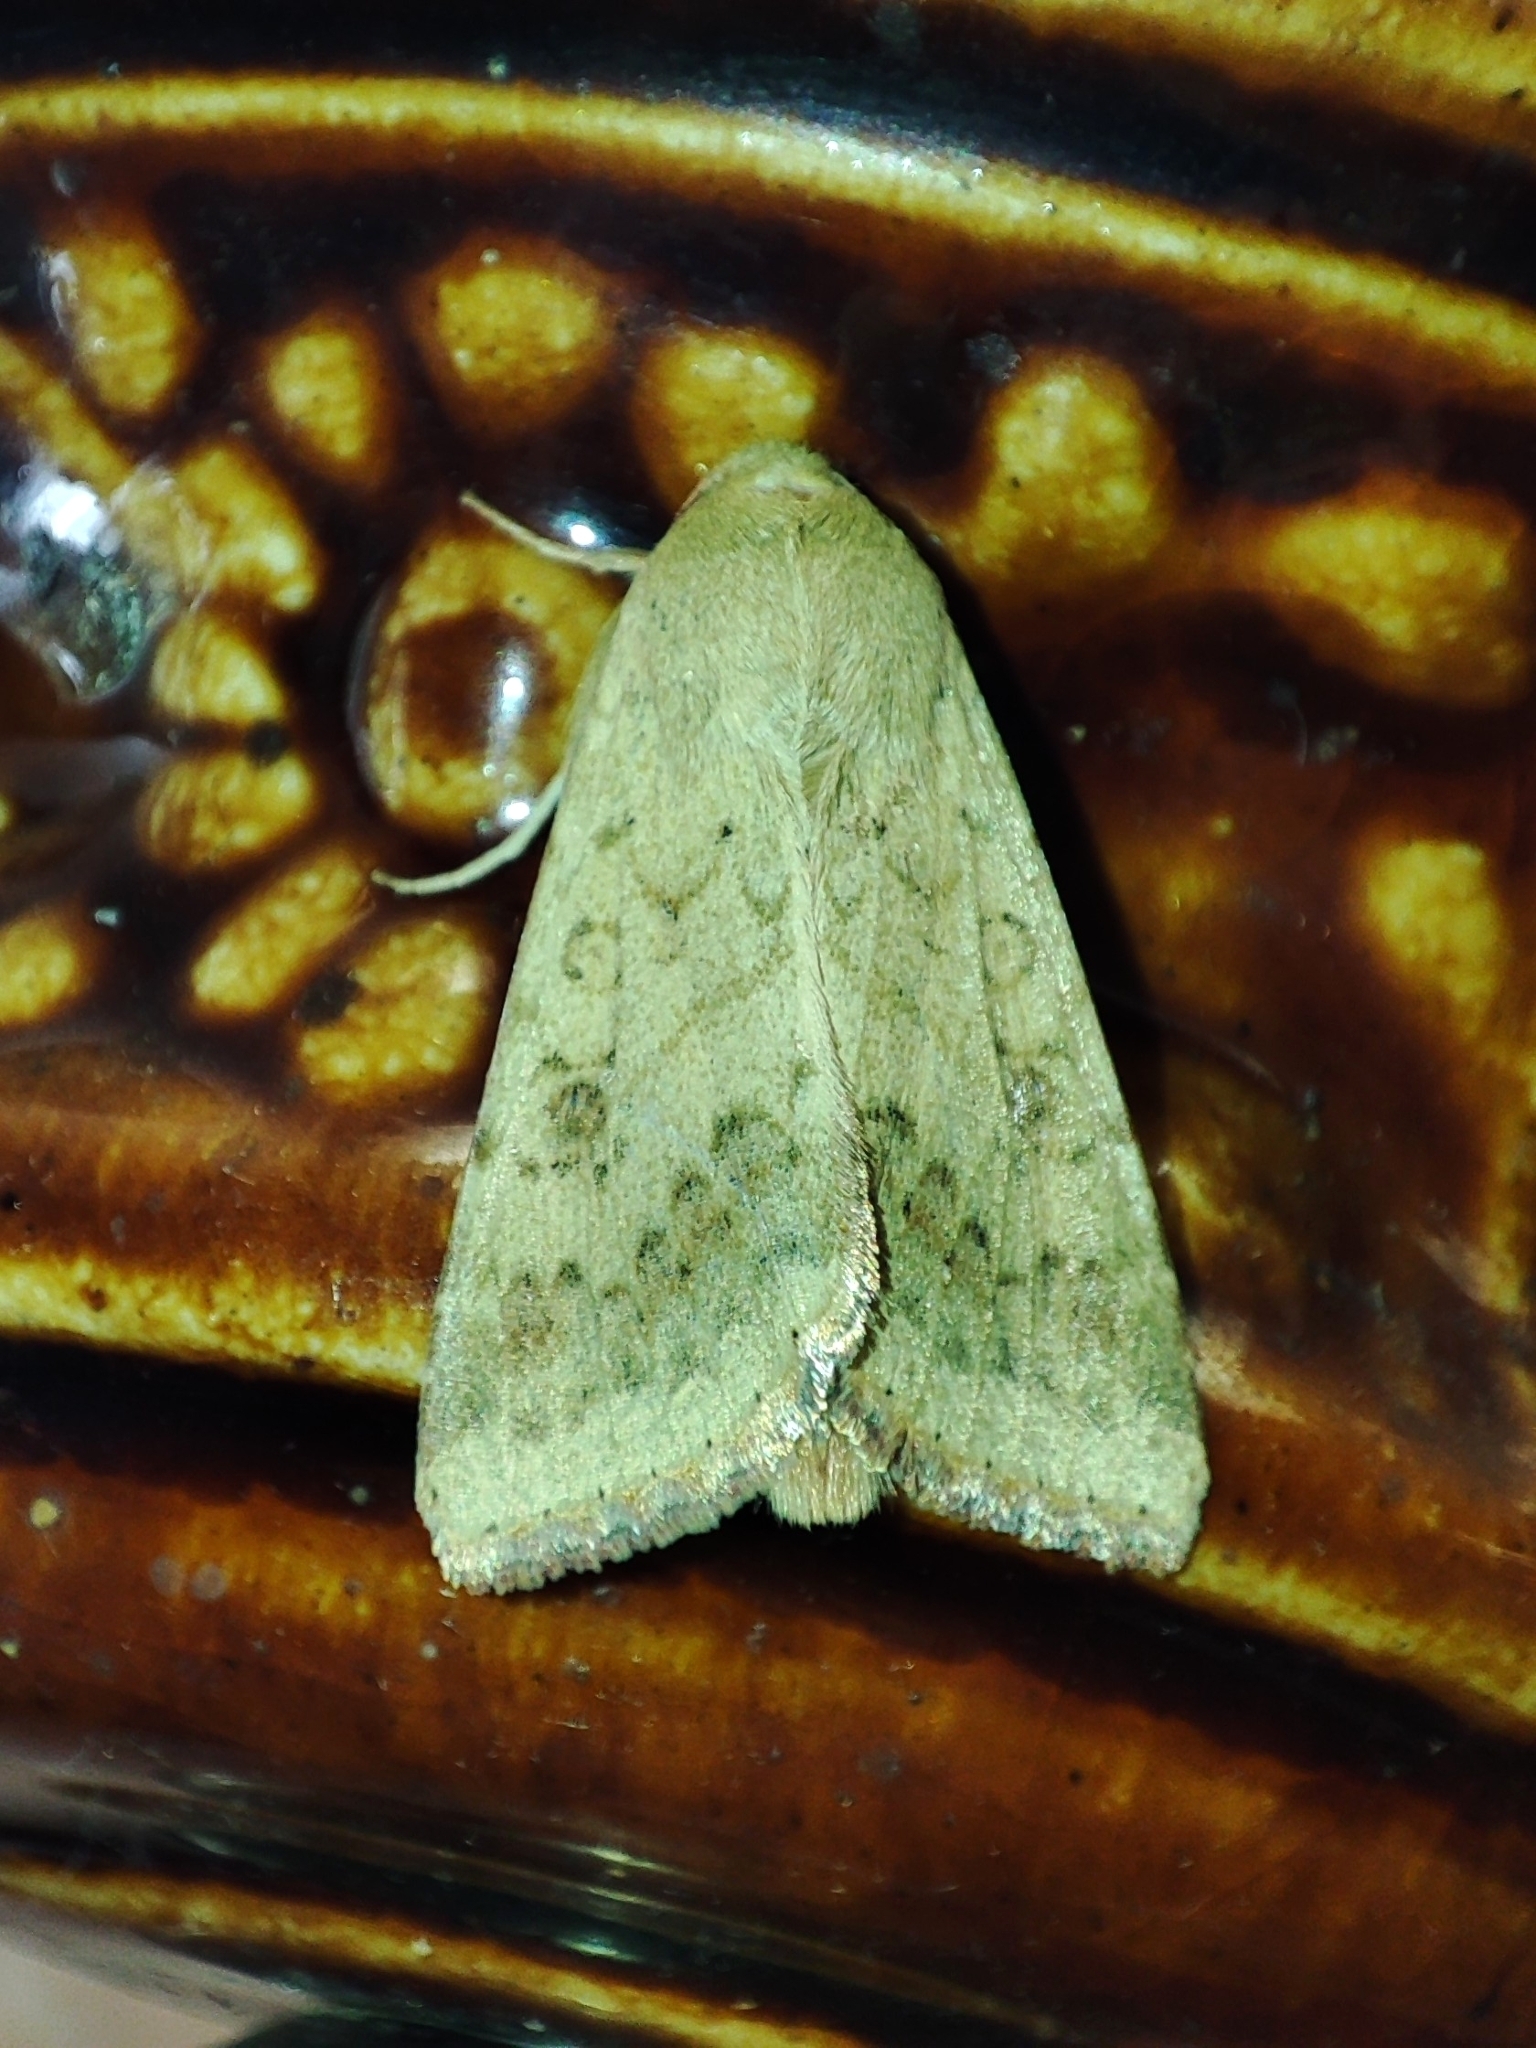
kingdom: Animalia
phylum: Arthropoda
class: Insecta
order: Lepidoptera
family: Noctuidae
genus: Helicoverpa
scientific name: Helicoverpa armigera
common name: Cotton bollworm
